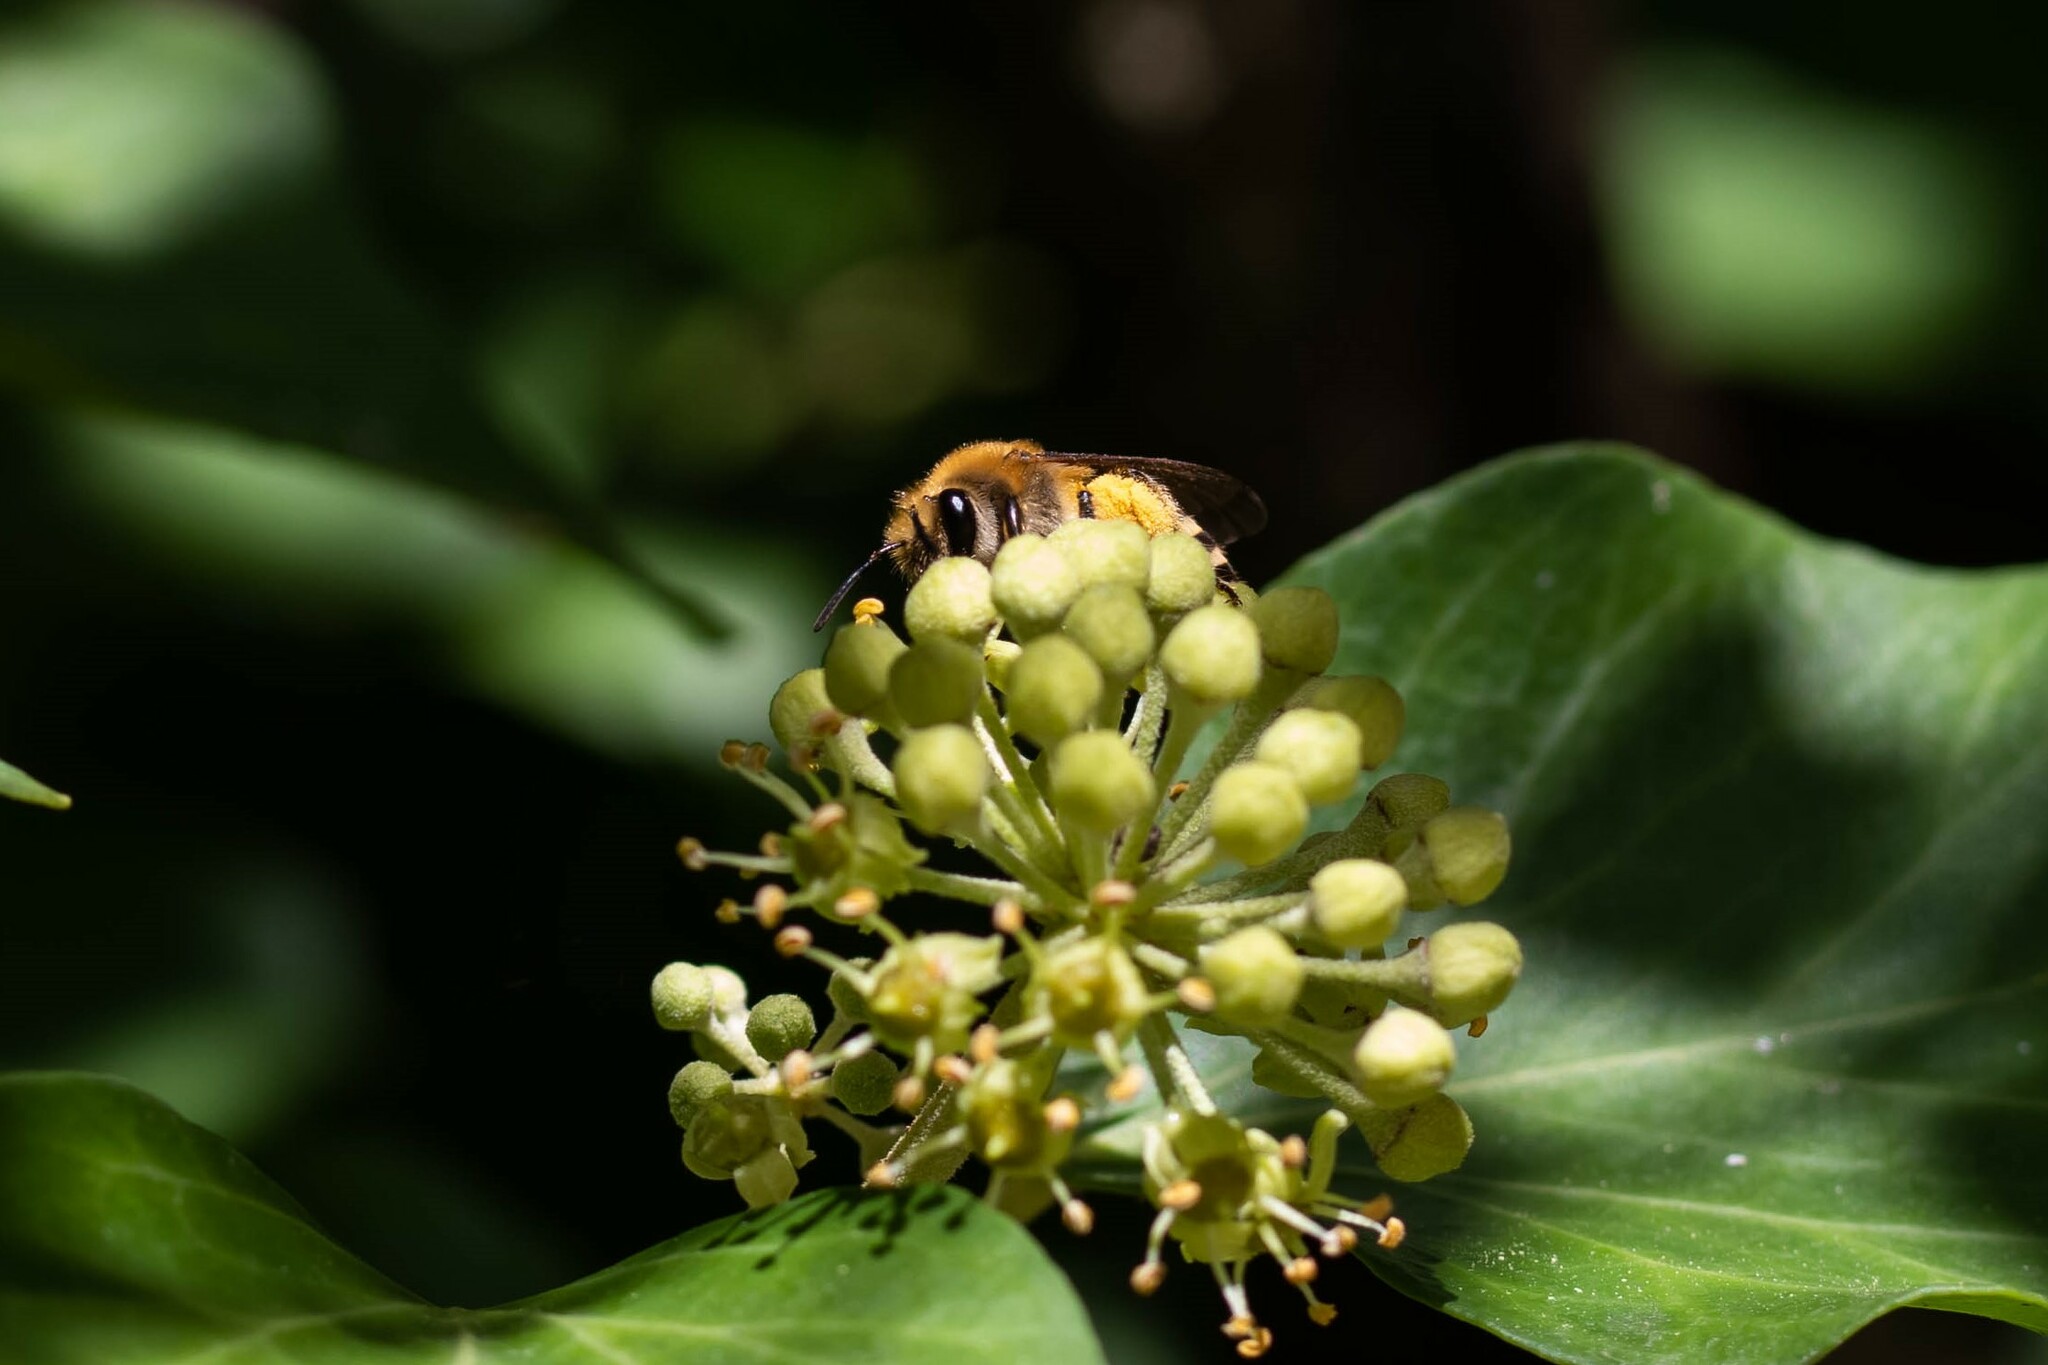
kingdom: Animalia
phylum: Arthropoda
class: Insecta
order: Hymenoptera
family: Colletidae
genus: Colletes
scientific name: Colletes hederae
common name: Ivy bee
